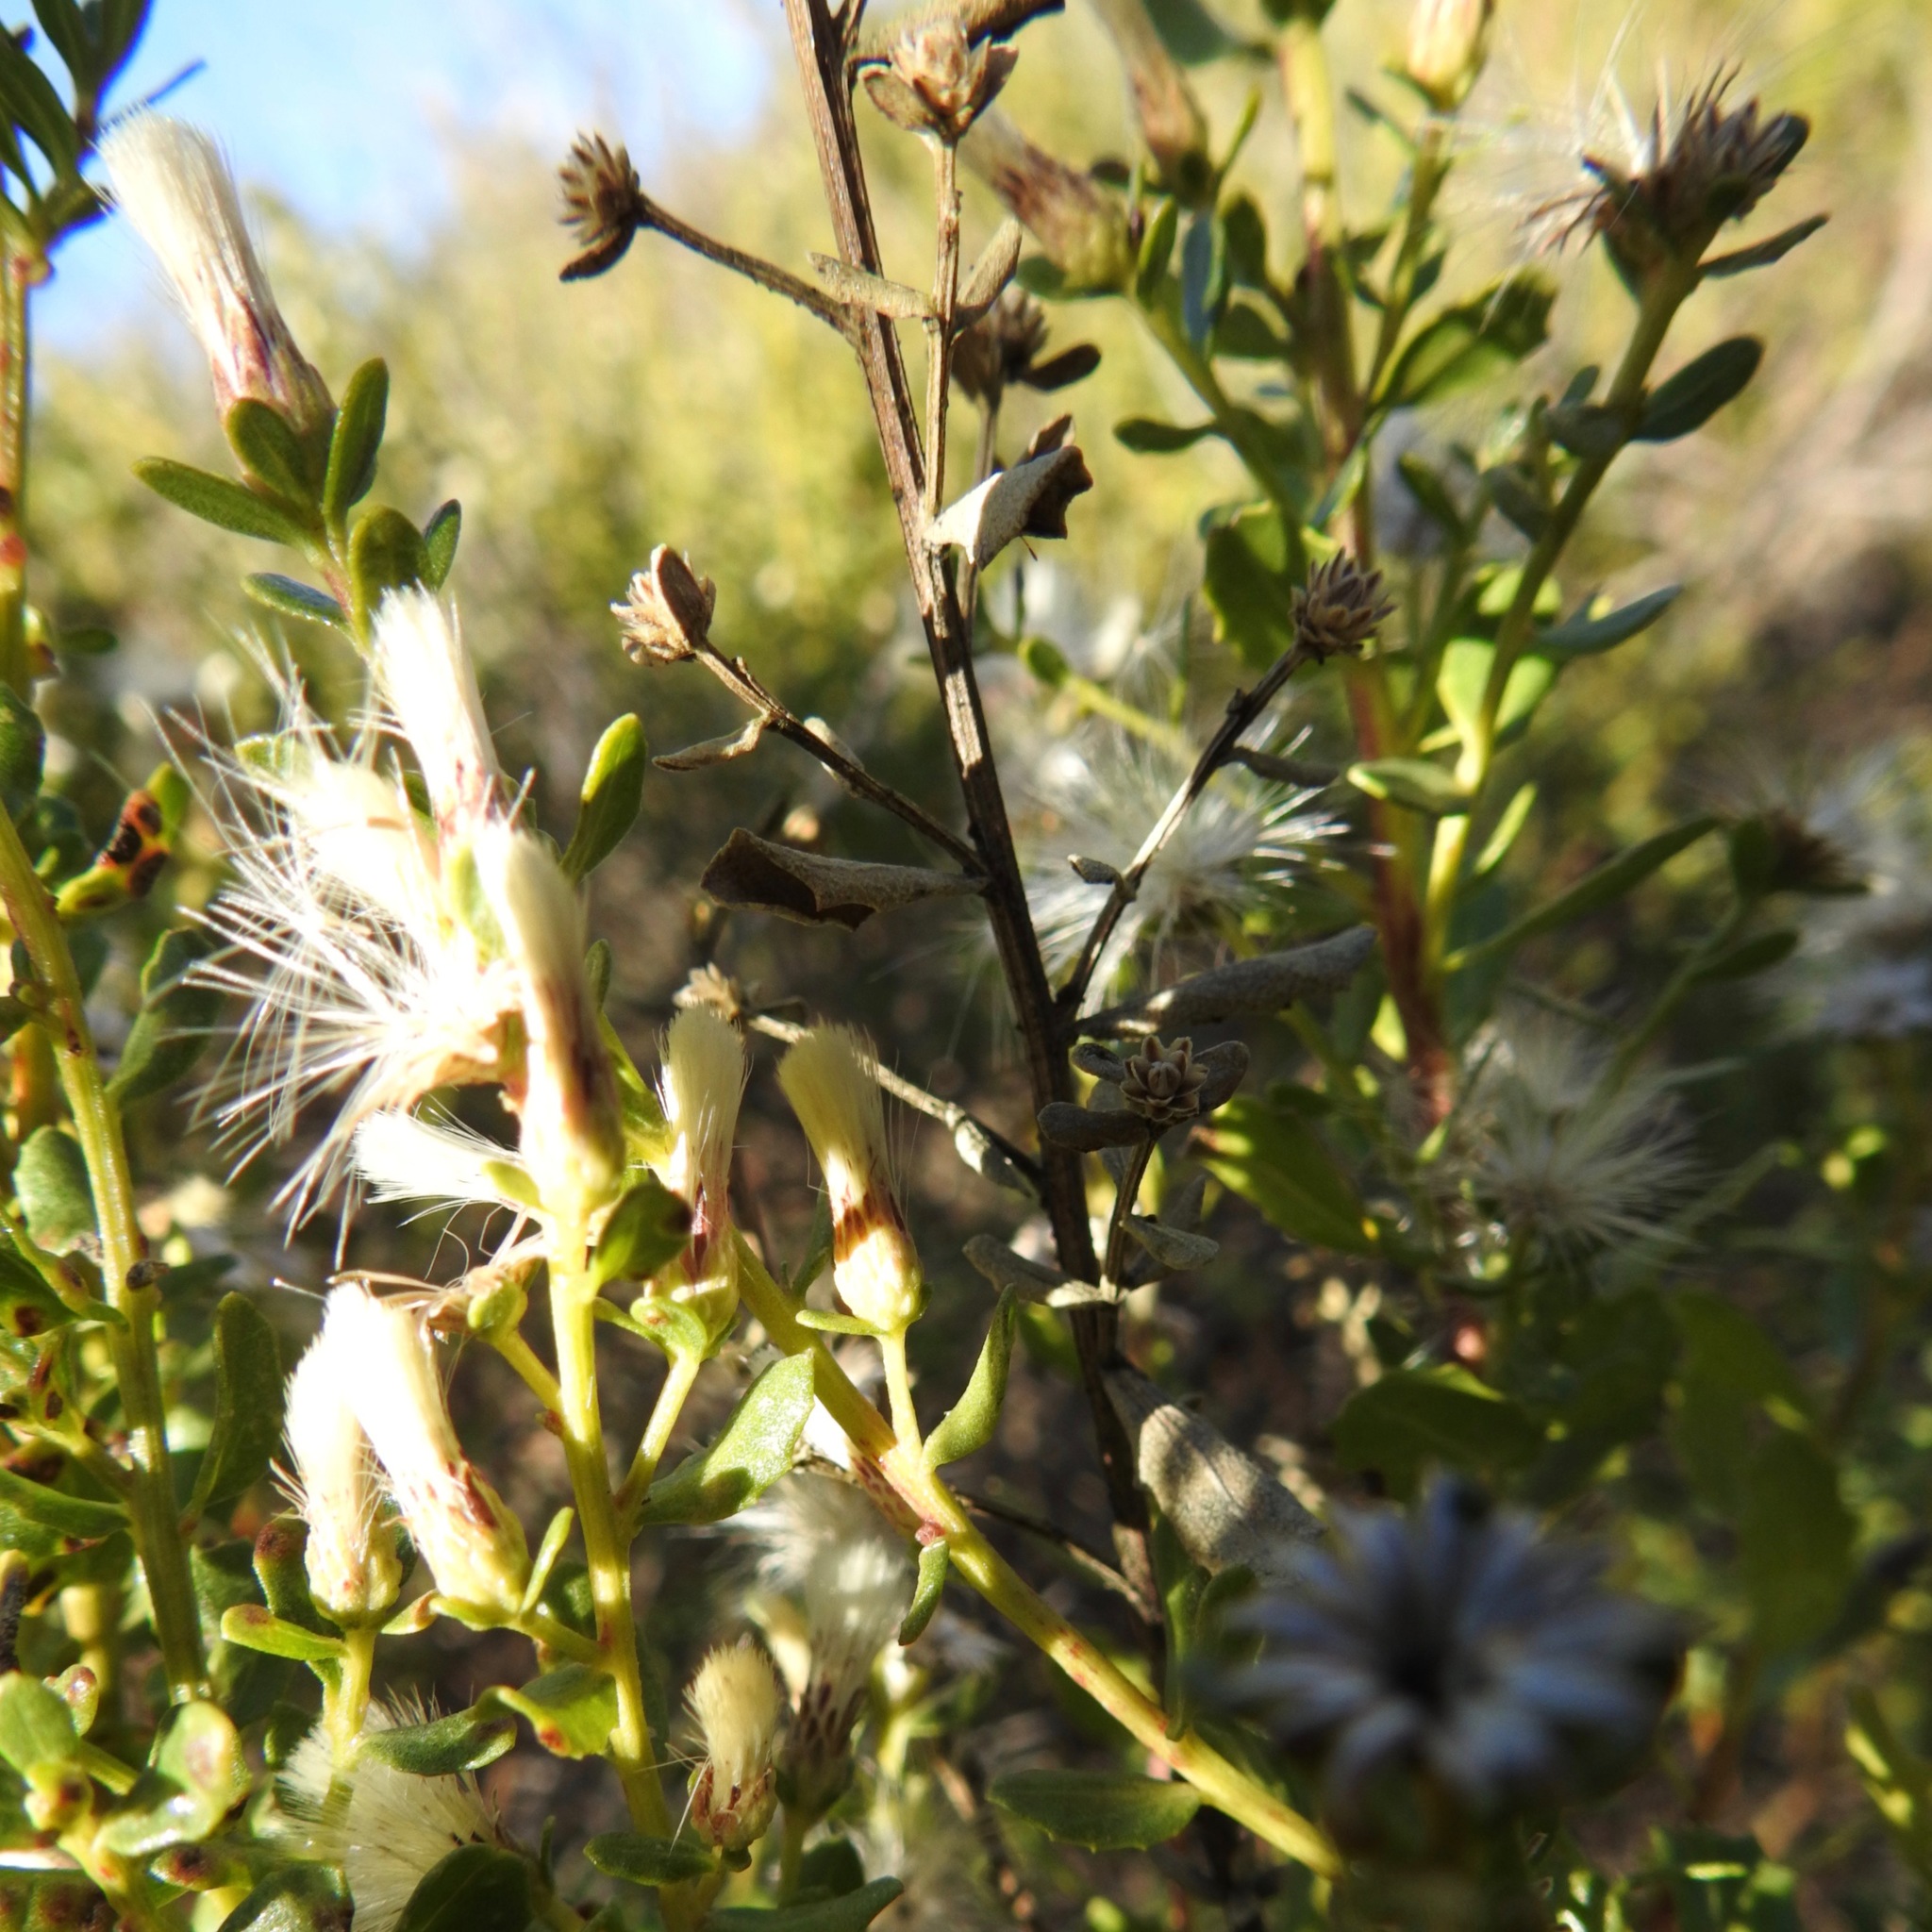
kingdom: Plantae
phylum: Tracheophyta
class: Magnoliopsida
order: Asterales
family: Asteraceae
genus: Baccharis
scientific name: Baccharis pilularis
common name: Coyotebrush
